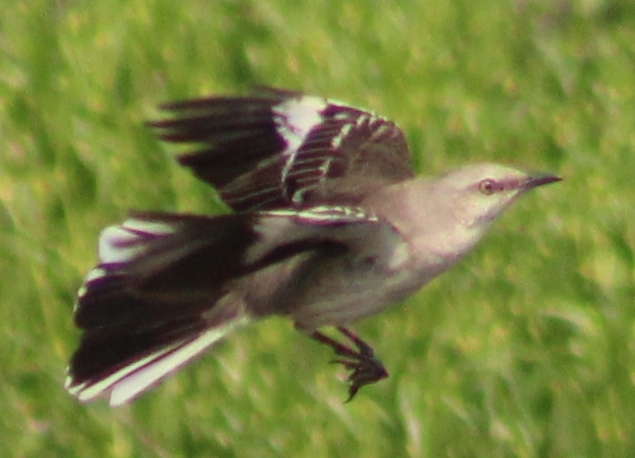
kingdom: Animalia
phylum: Chordata
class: Aves
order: Passeriformes
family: Mimidae
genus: Mimus
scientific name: Mimus polyglottos
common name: Northern mockingbird
